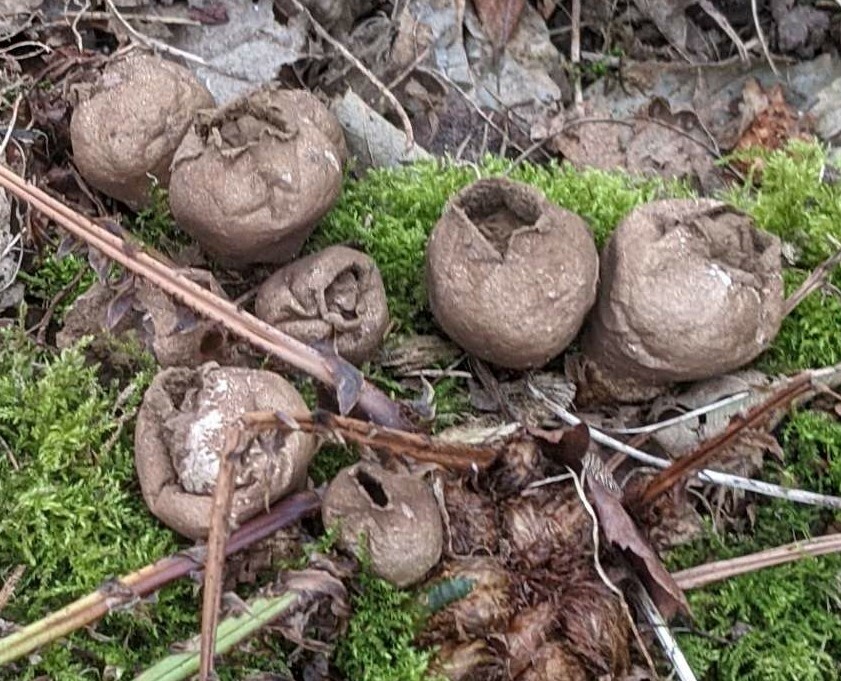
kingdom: Fungi
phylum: Basidiomycota
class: Agaricomycetes
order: Agaricales
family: Lycoperdaceae
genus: Apioperdon
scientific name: Apioperdon pyriforme
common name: Pear-shaped puffball
